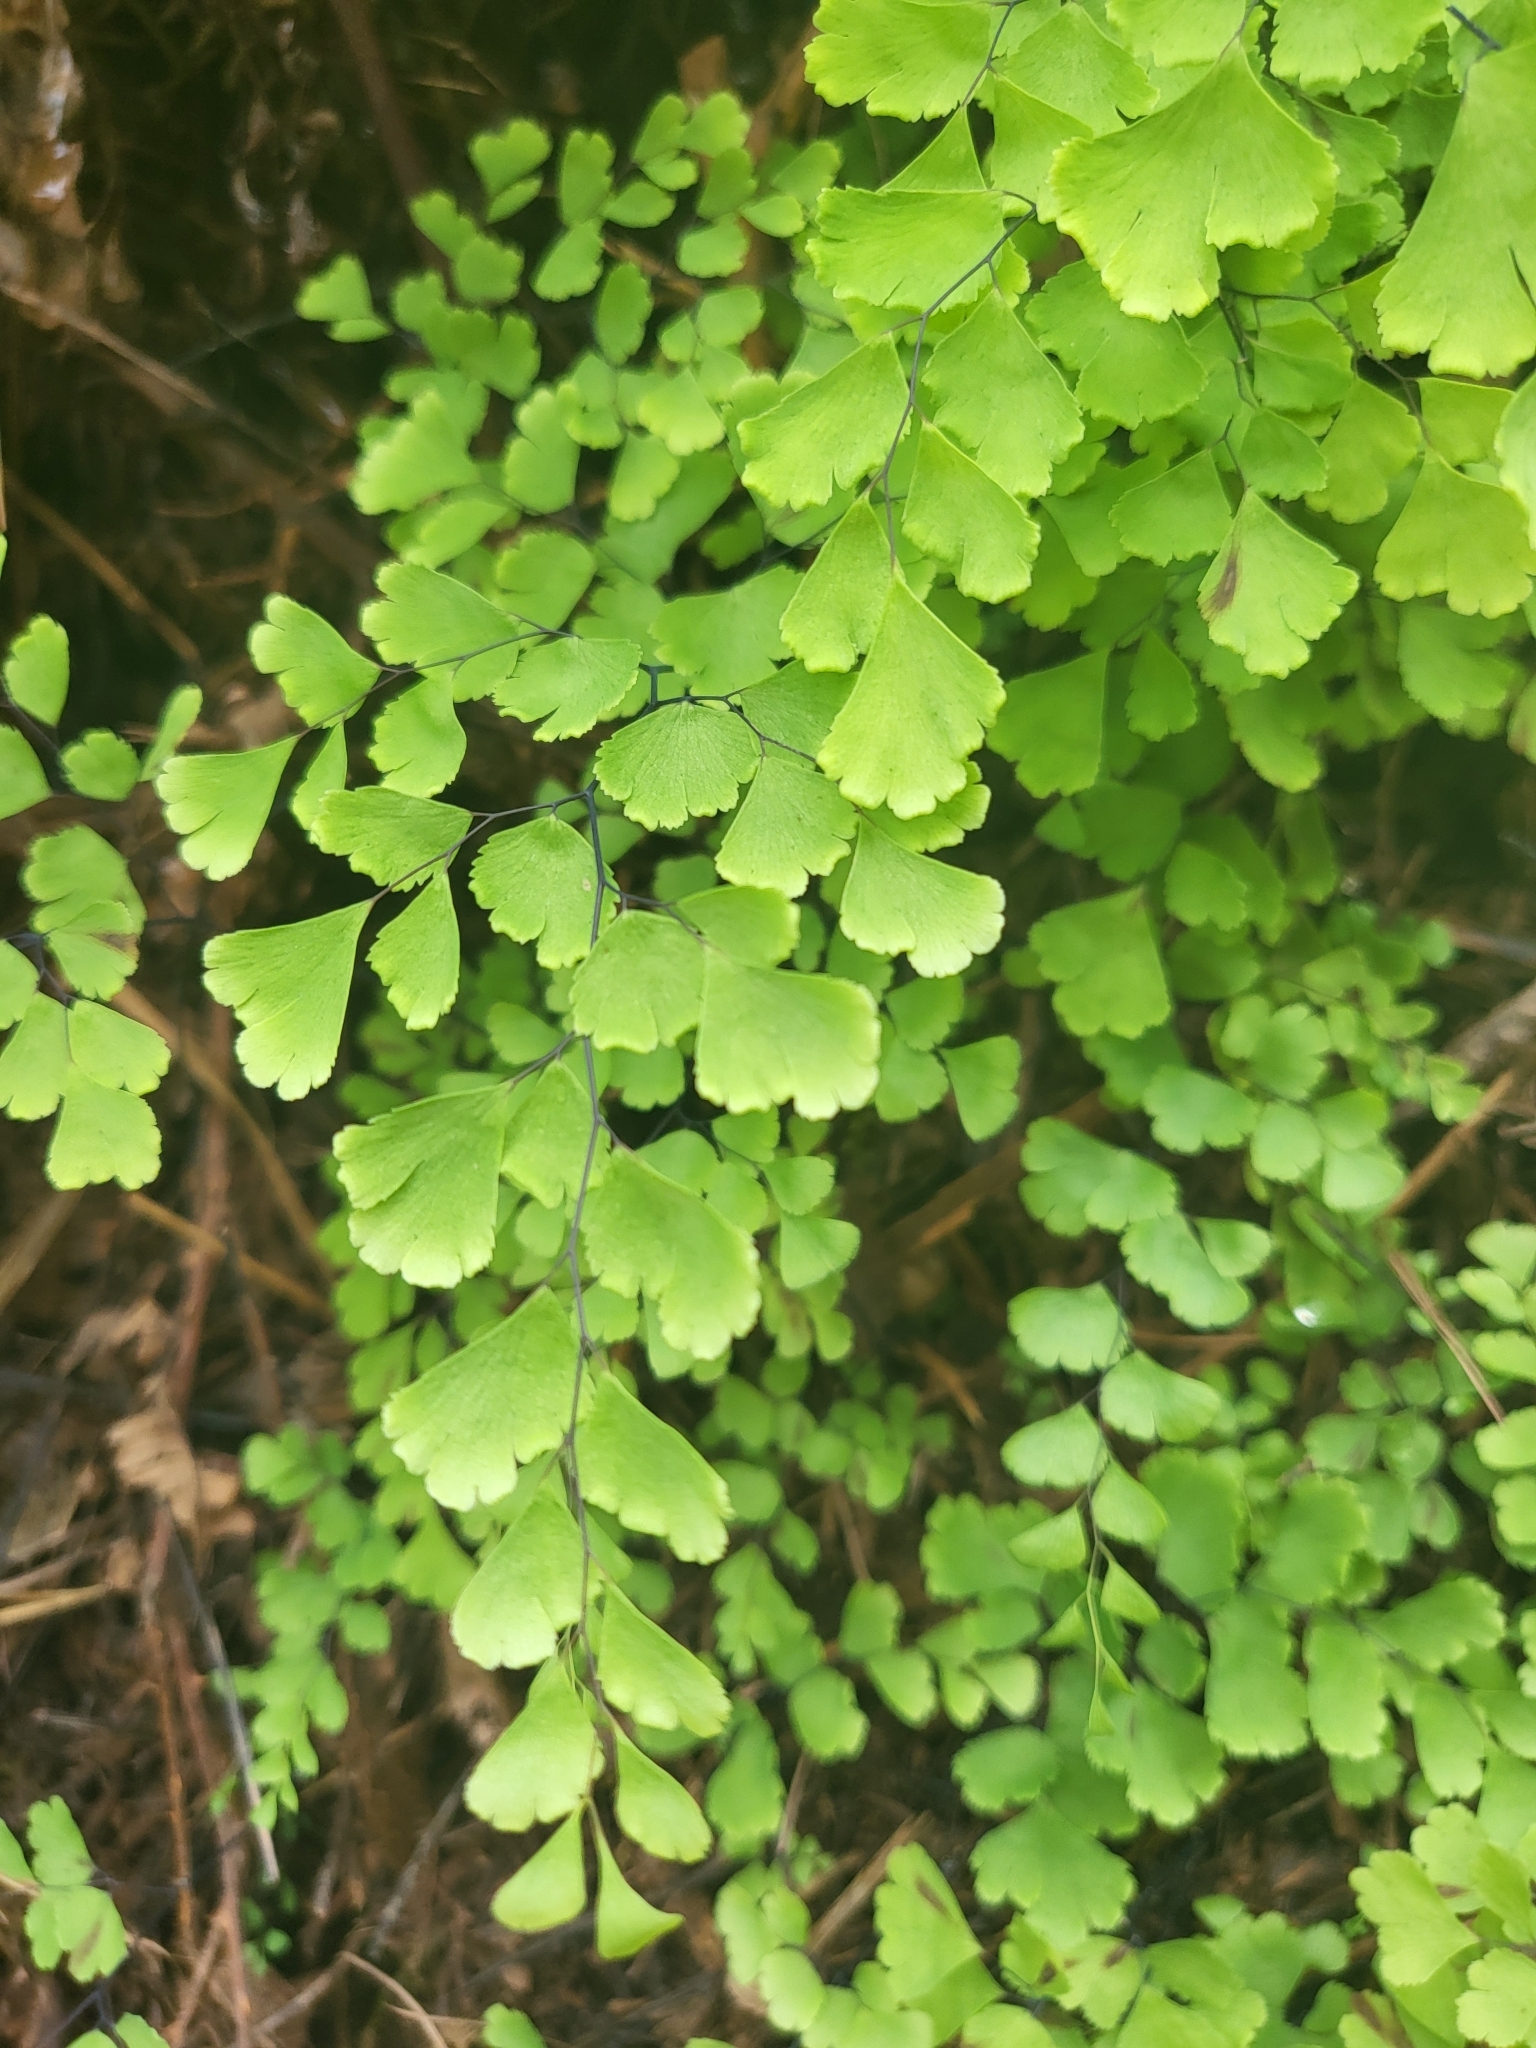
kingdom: Plantae
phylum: Tracheophyta
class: Polypodiopsida
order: Polypodiales
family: Pteridaceae
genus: Adiantum
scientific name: Adiantum capillus-veneris
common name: Maidenhair fern
